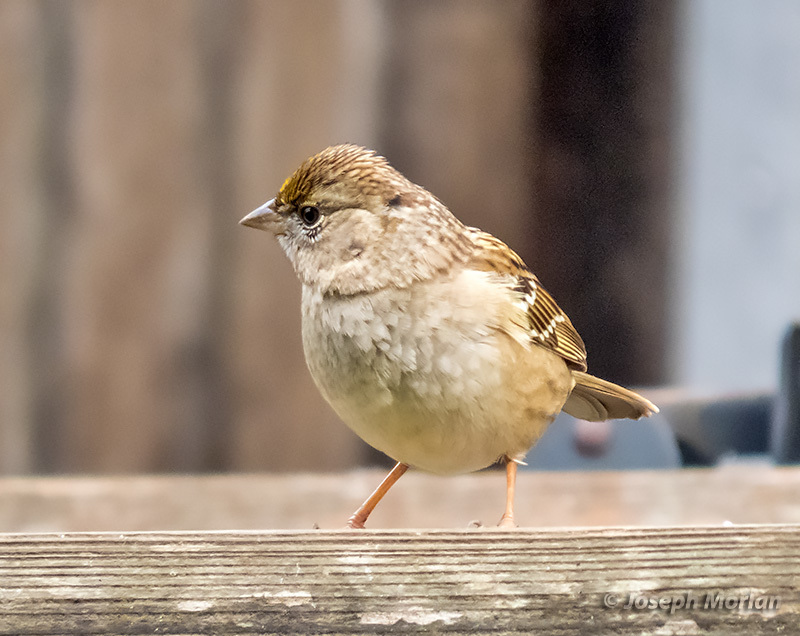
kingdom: Animalia
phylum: Chordata
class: Aves
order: Passeriformes
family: Passerellidae
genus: Zonotrichia
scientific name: Zonotrichia atricapilla
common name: Golden-crowned sparrow
